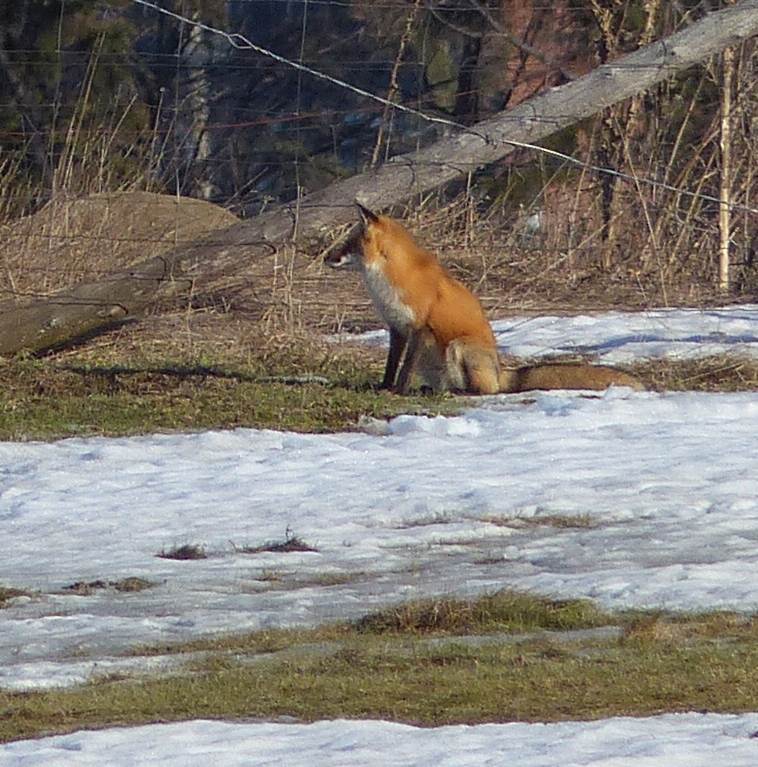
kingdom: Animalia
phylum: Chordata
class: Mammalia
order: Carnivora
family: Canidae
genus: Vulpes
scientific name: Vulpes vulpes
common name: Red fox
